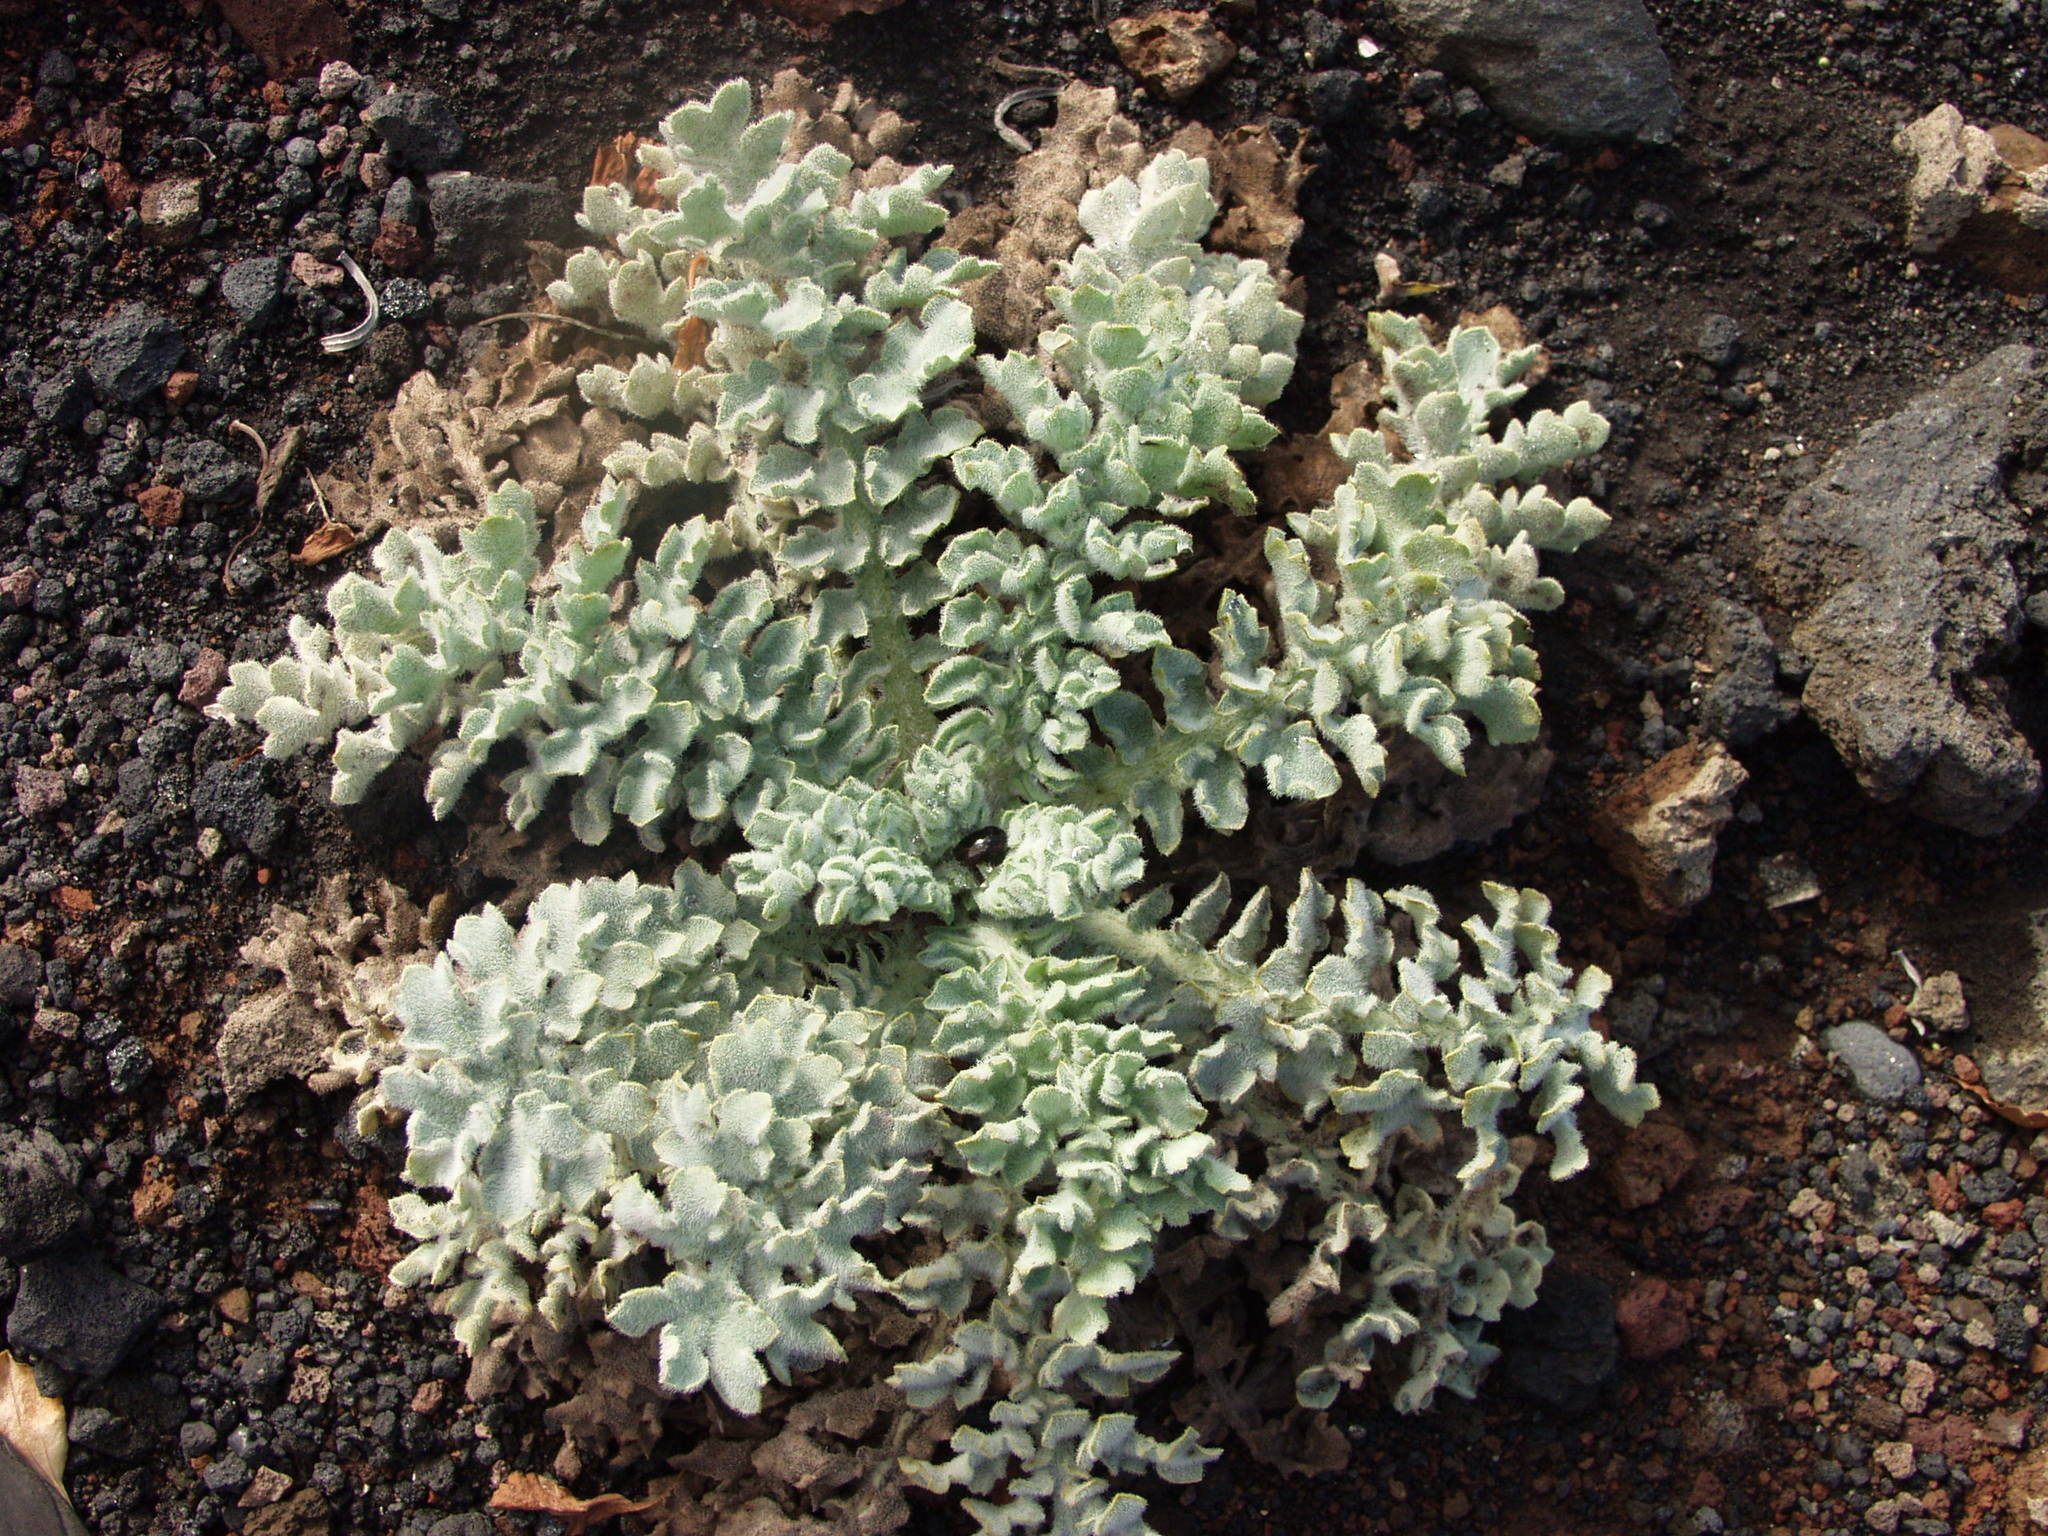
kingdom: Plantae
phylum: Tracheophyta
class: Magnoliopsida
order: Ranunculales
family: Papaveraceae
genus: Glaucium
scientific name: Glaucium flavum
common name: Yellow horned-poppy
